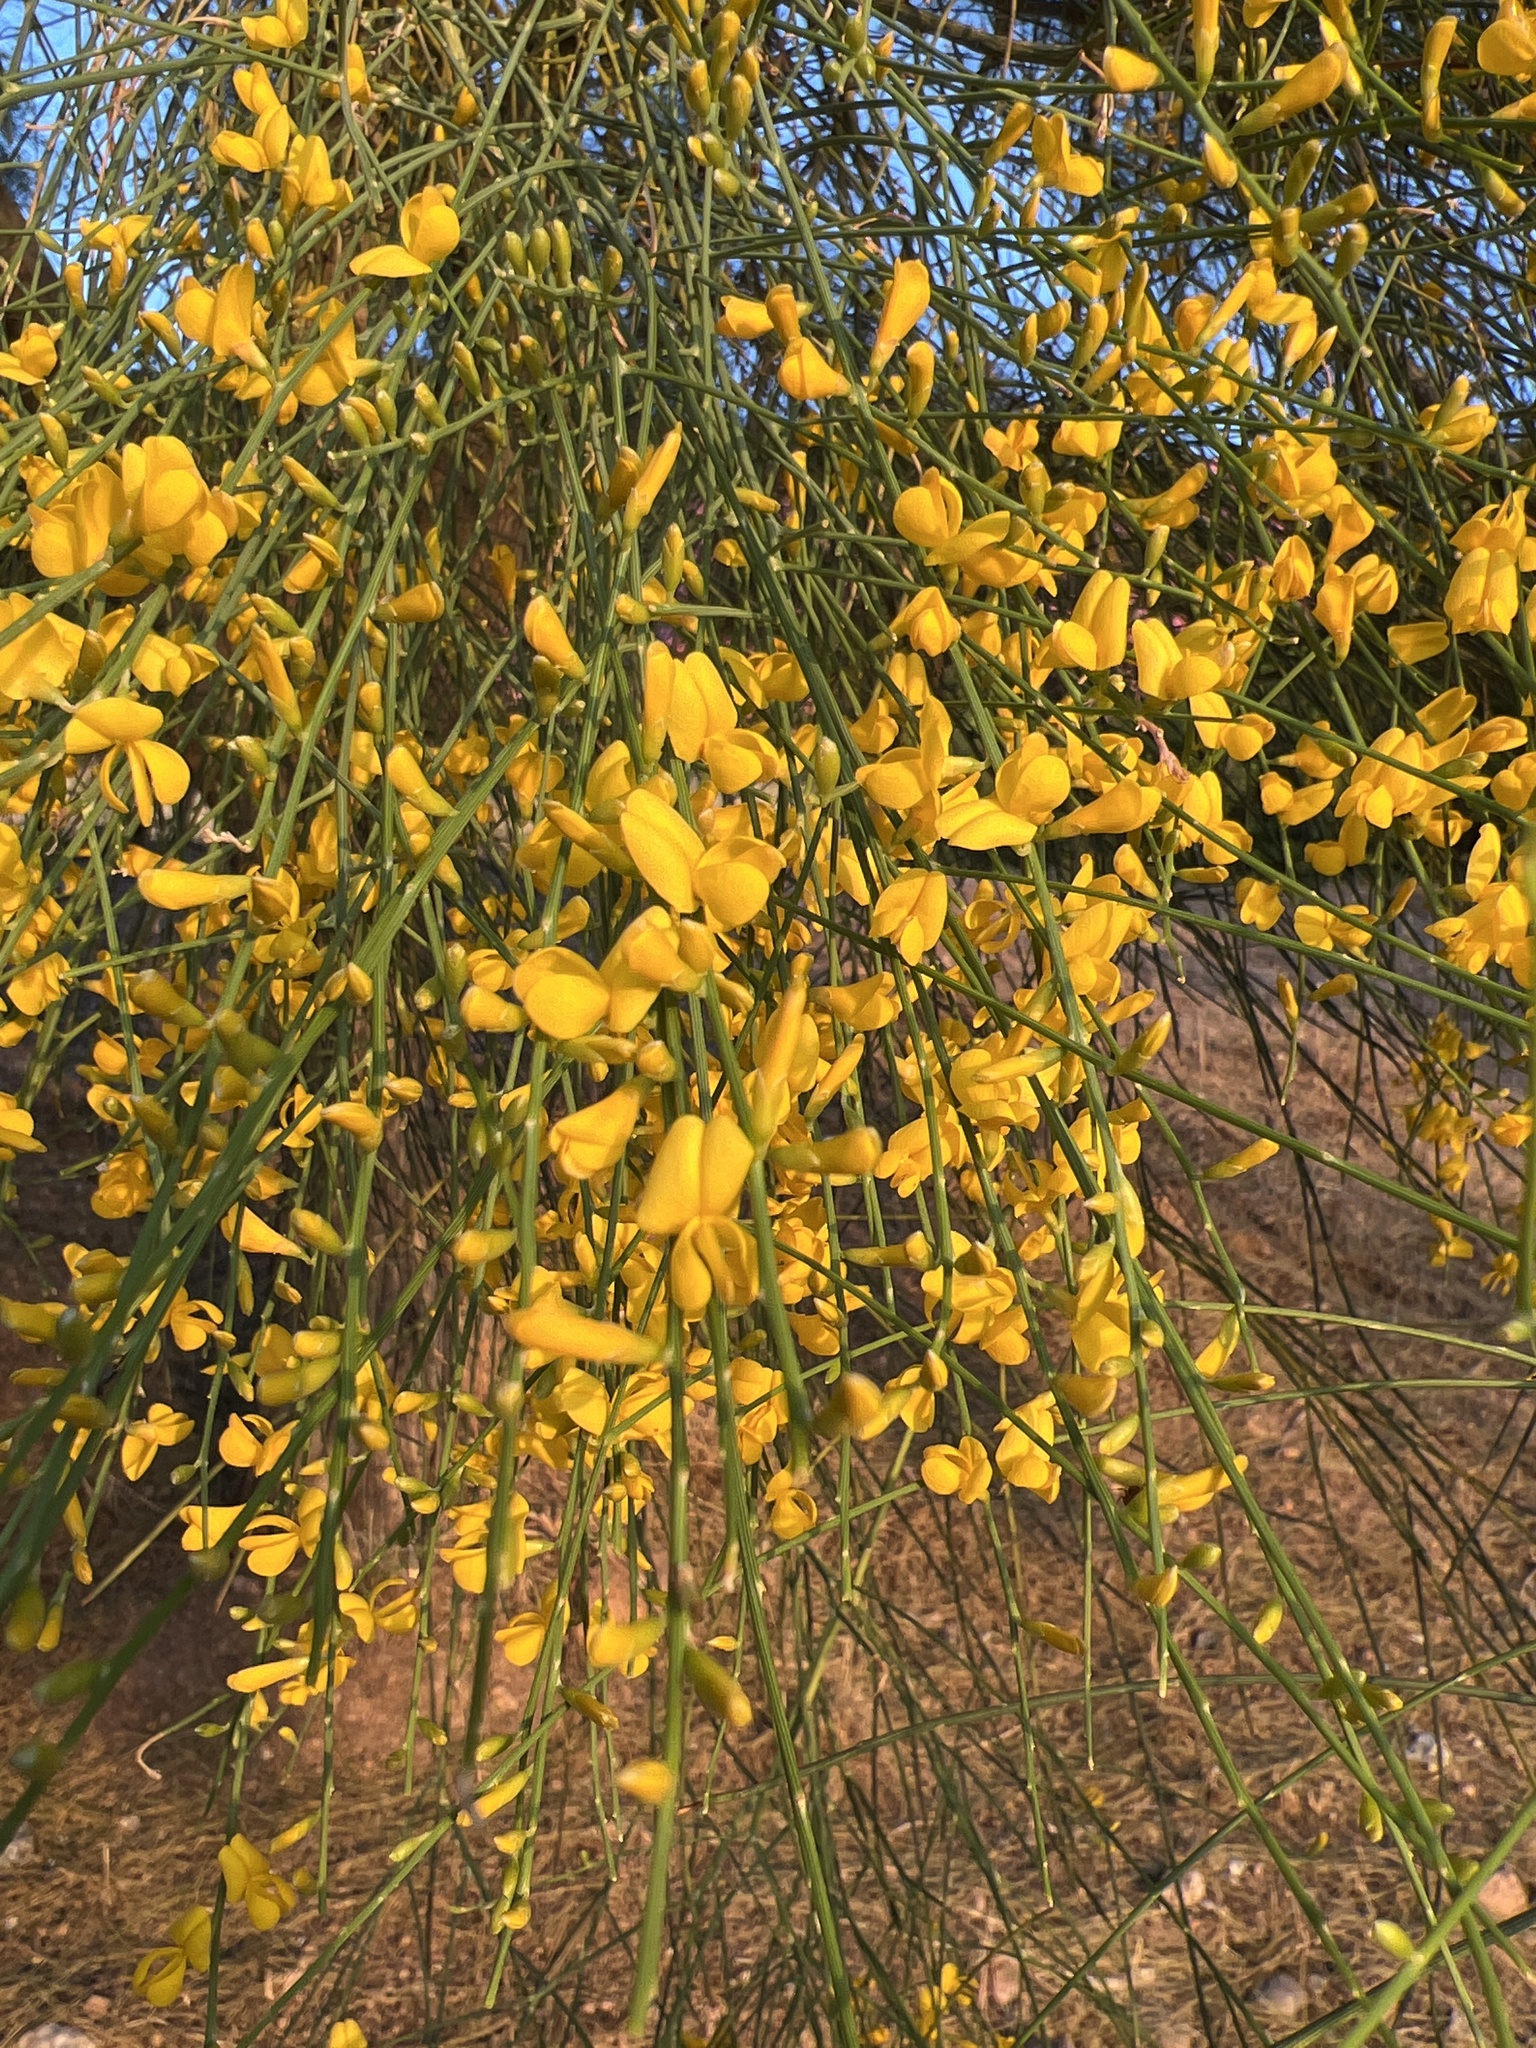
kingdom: Plantae
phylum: Tracheophyta
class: Magnoliopsida
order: Fabales
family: Fabaceae
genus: Genista
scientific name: Genista aetnensis
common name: Mount etna broom
